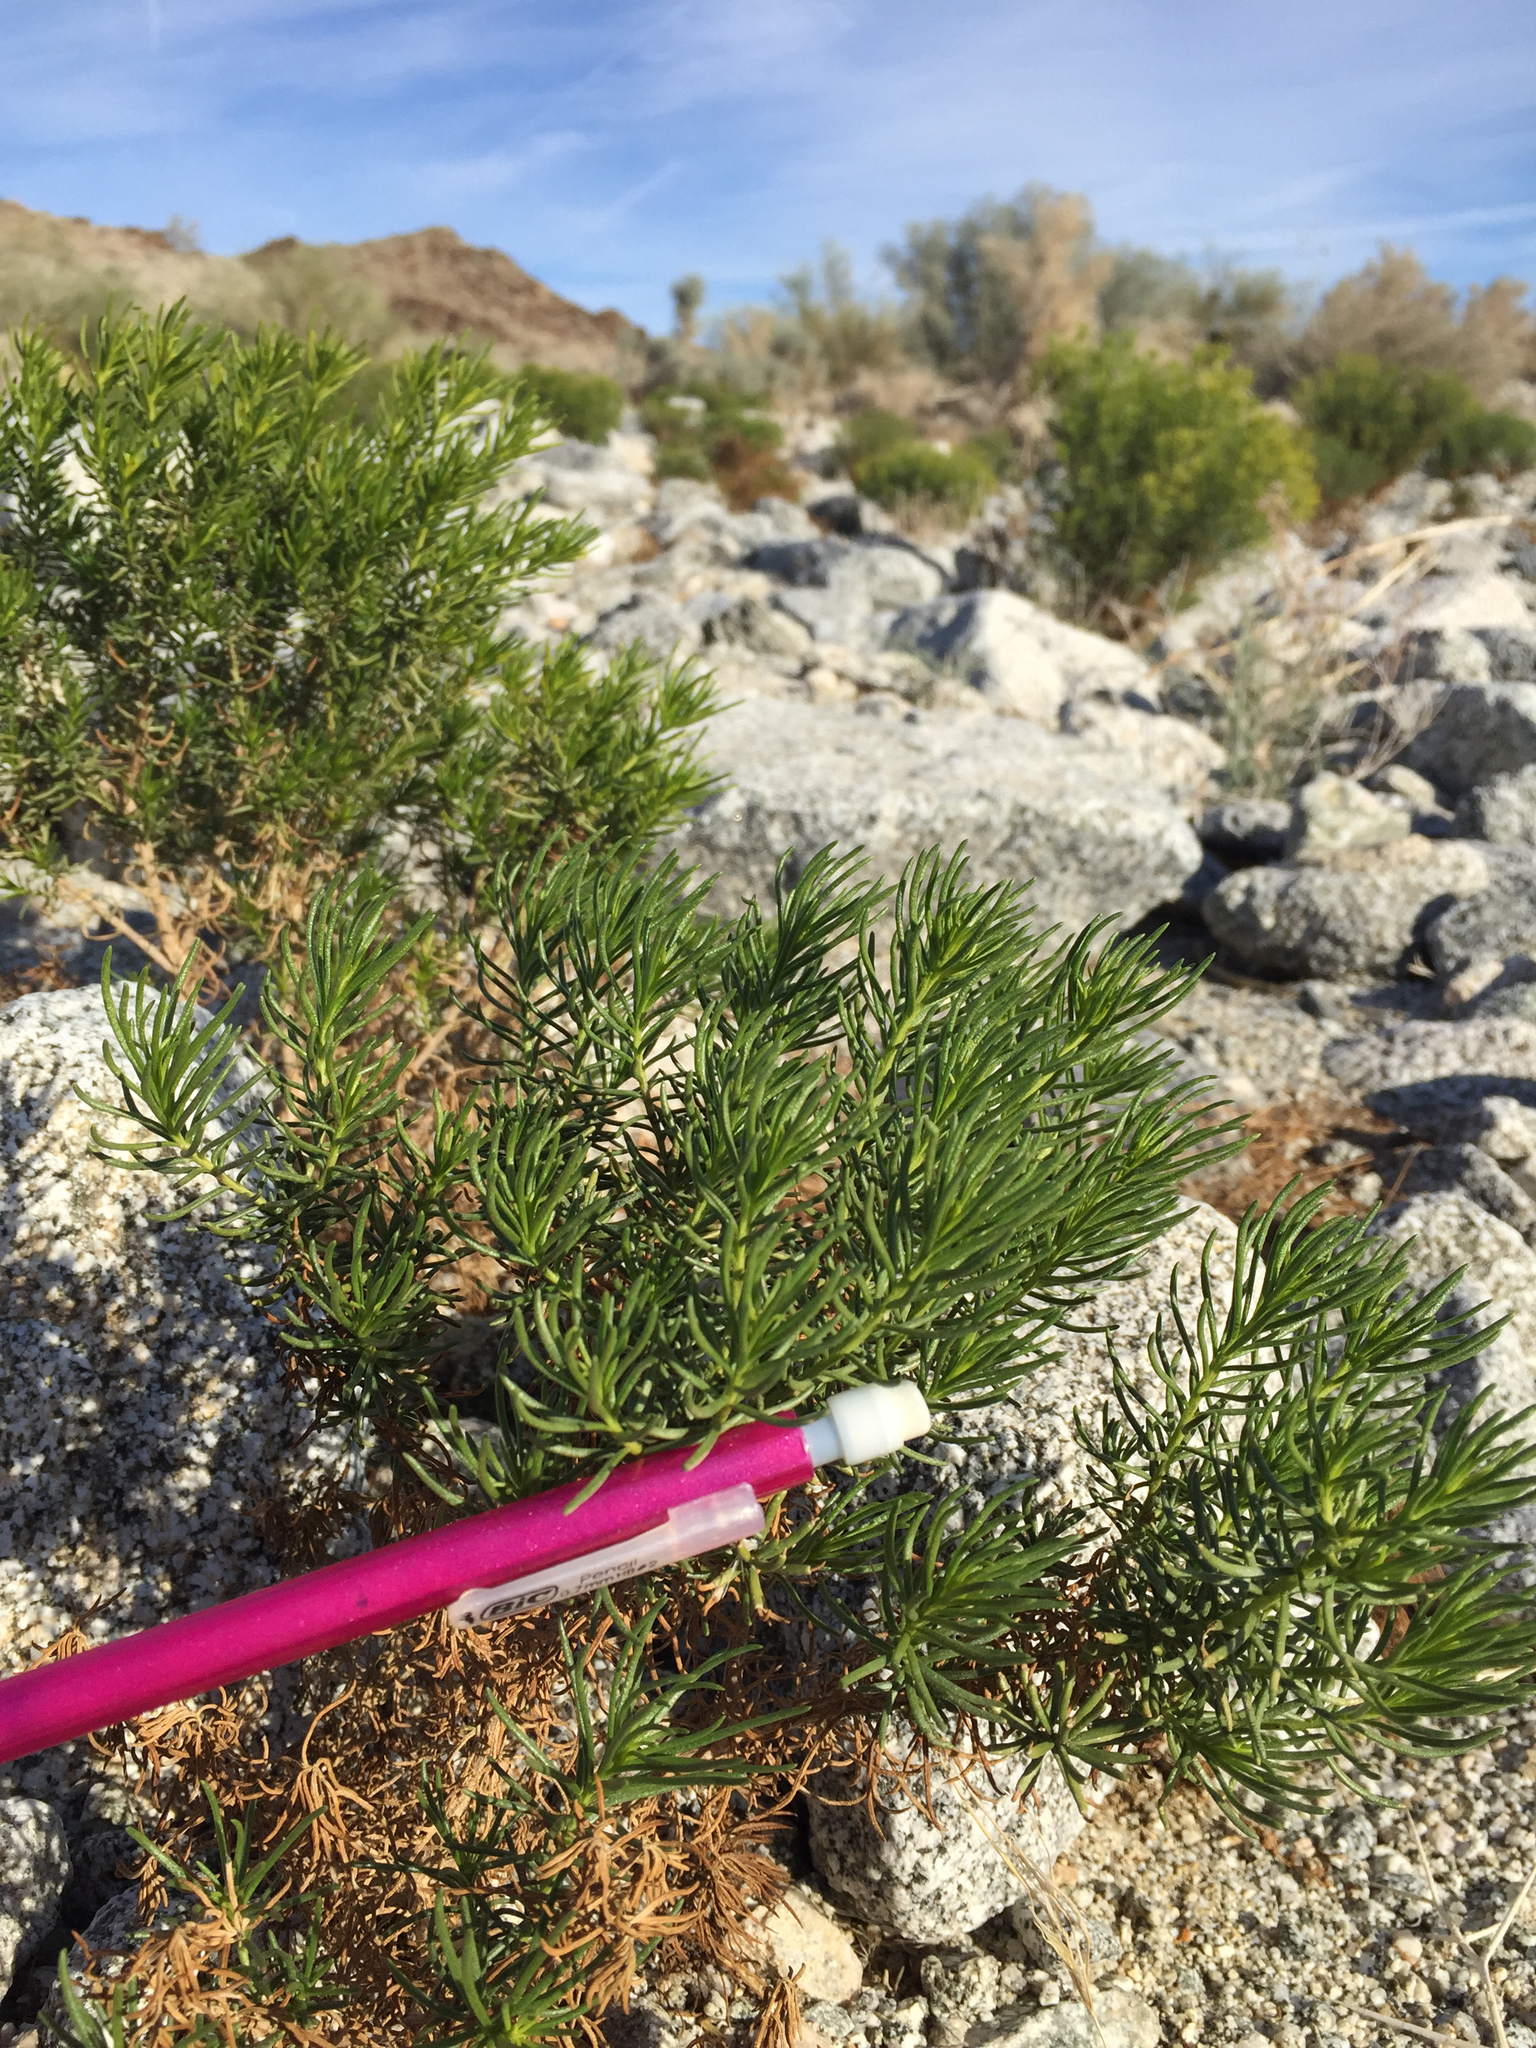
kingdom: Plantae
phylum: Tracheophyta
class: Magnoliopsida
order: Asterales
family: Asteraceae
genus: Peucephyllum
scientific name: Peucephyllum schottii
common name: Pygmy-cedar
